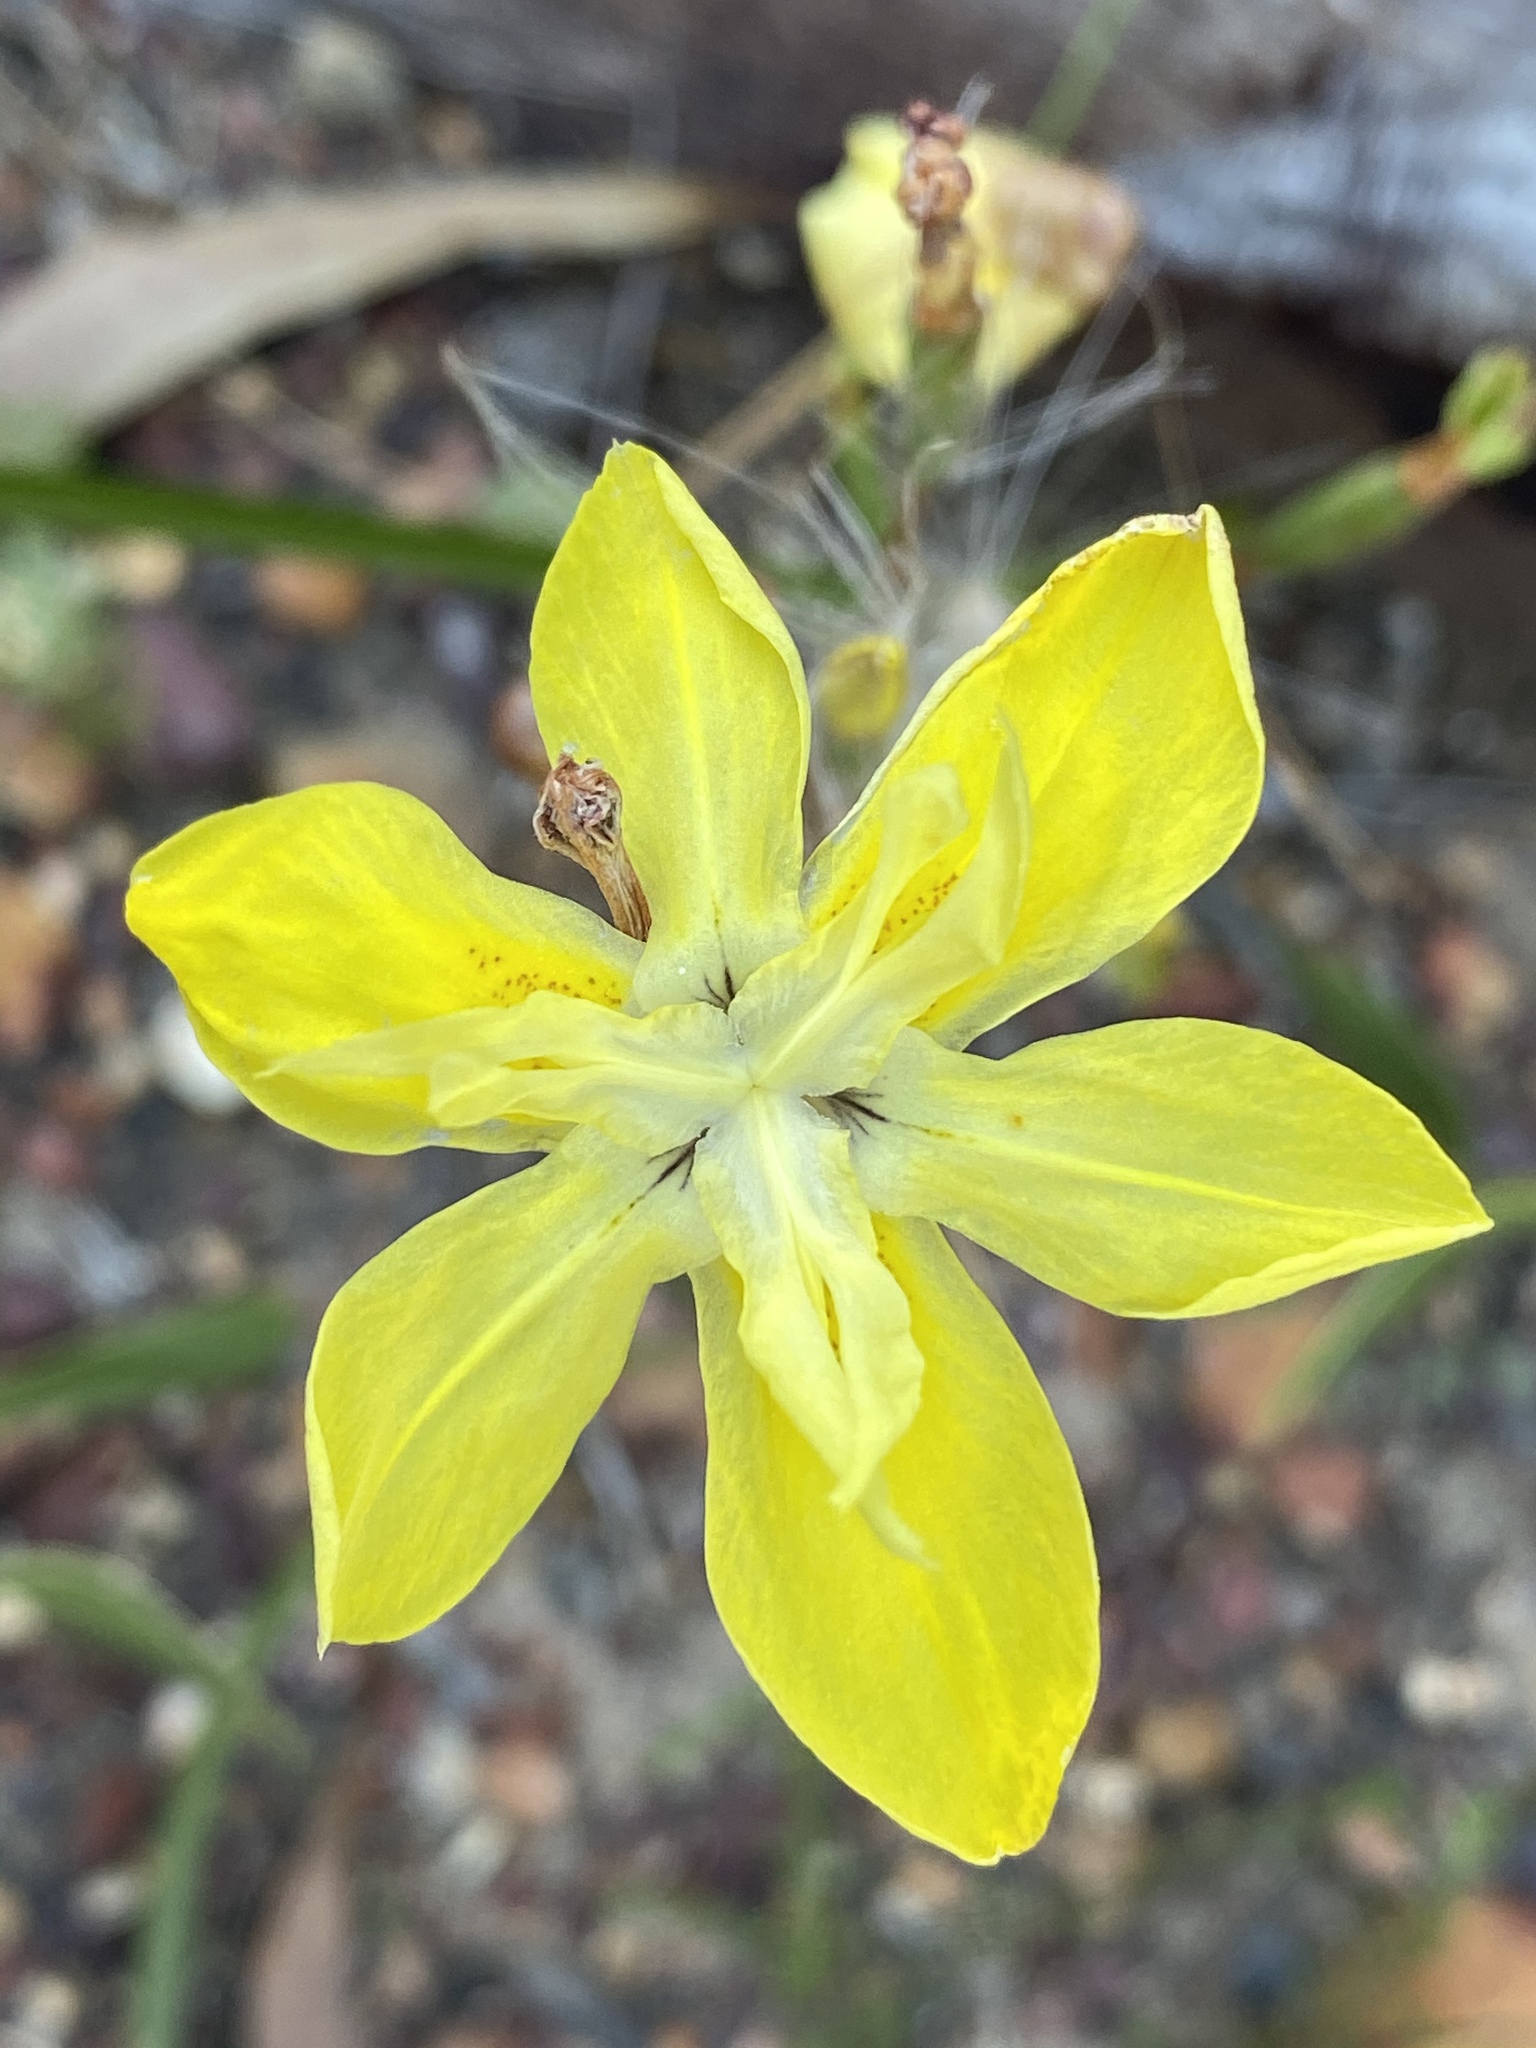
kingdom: Plantae
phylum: Tracheophyta
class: Liliopsida
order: Asparagales
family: Iridaceae
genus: Moraea
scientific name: Moraea ramosissima
